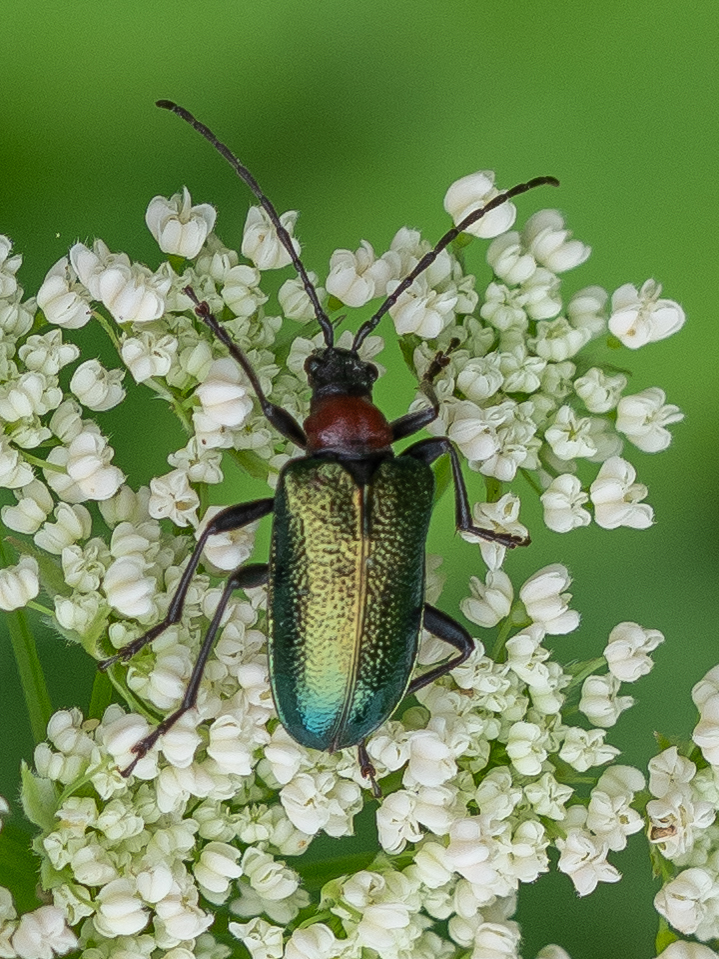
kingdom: Animalia
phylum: Arthropoda
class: Insecta
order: Coleoptera
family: Cerambycidae
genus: Gaurotes
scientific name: Gaurotes virginea
